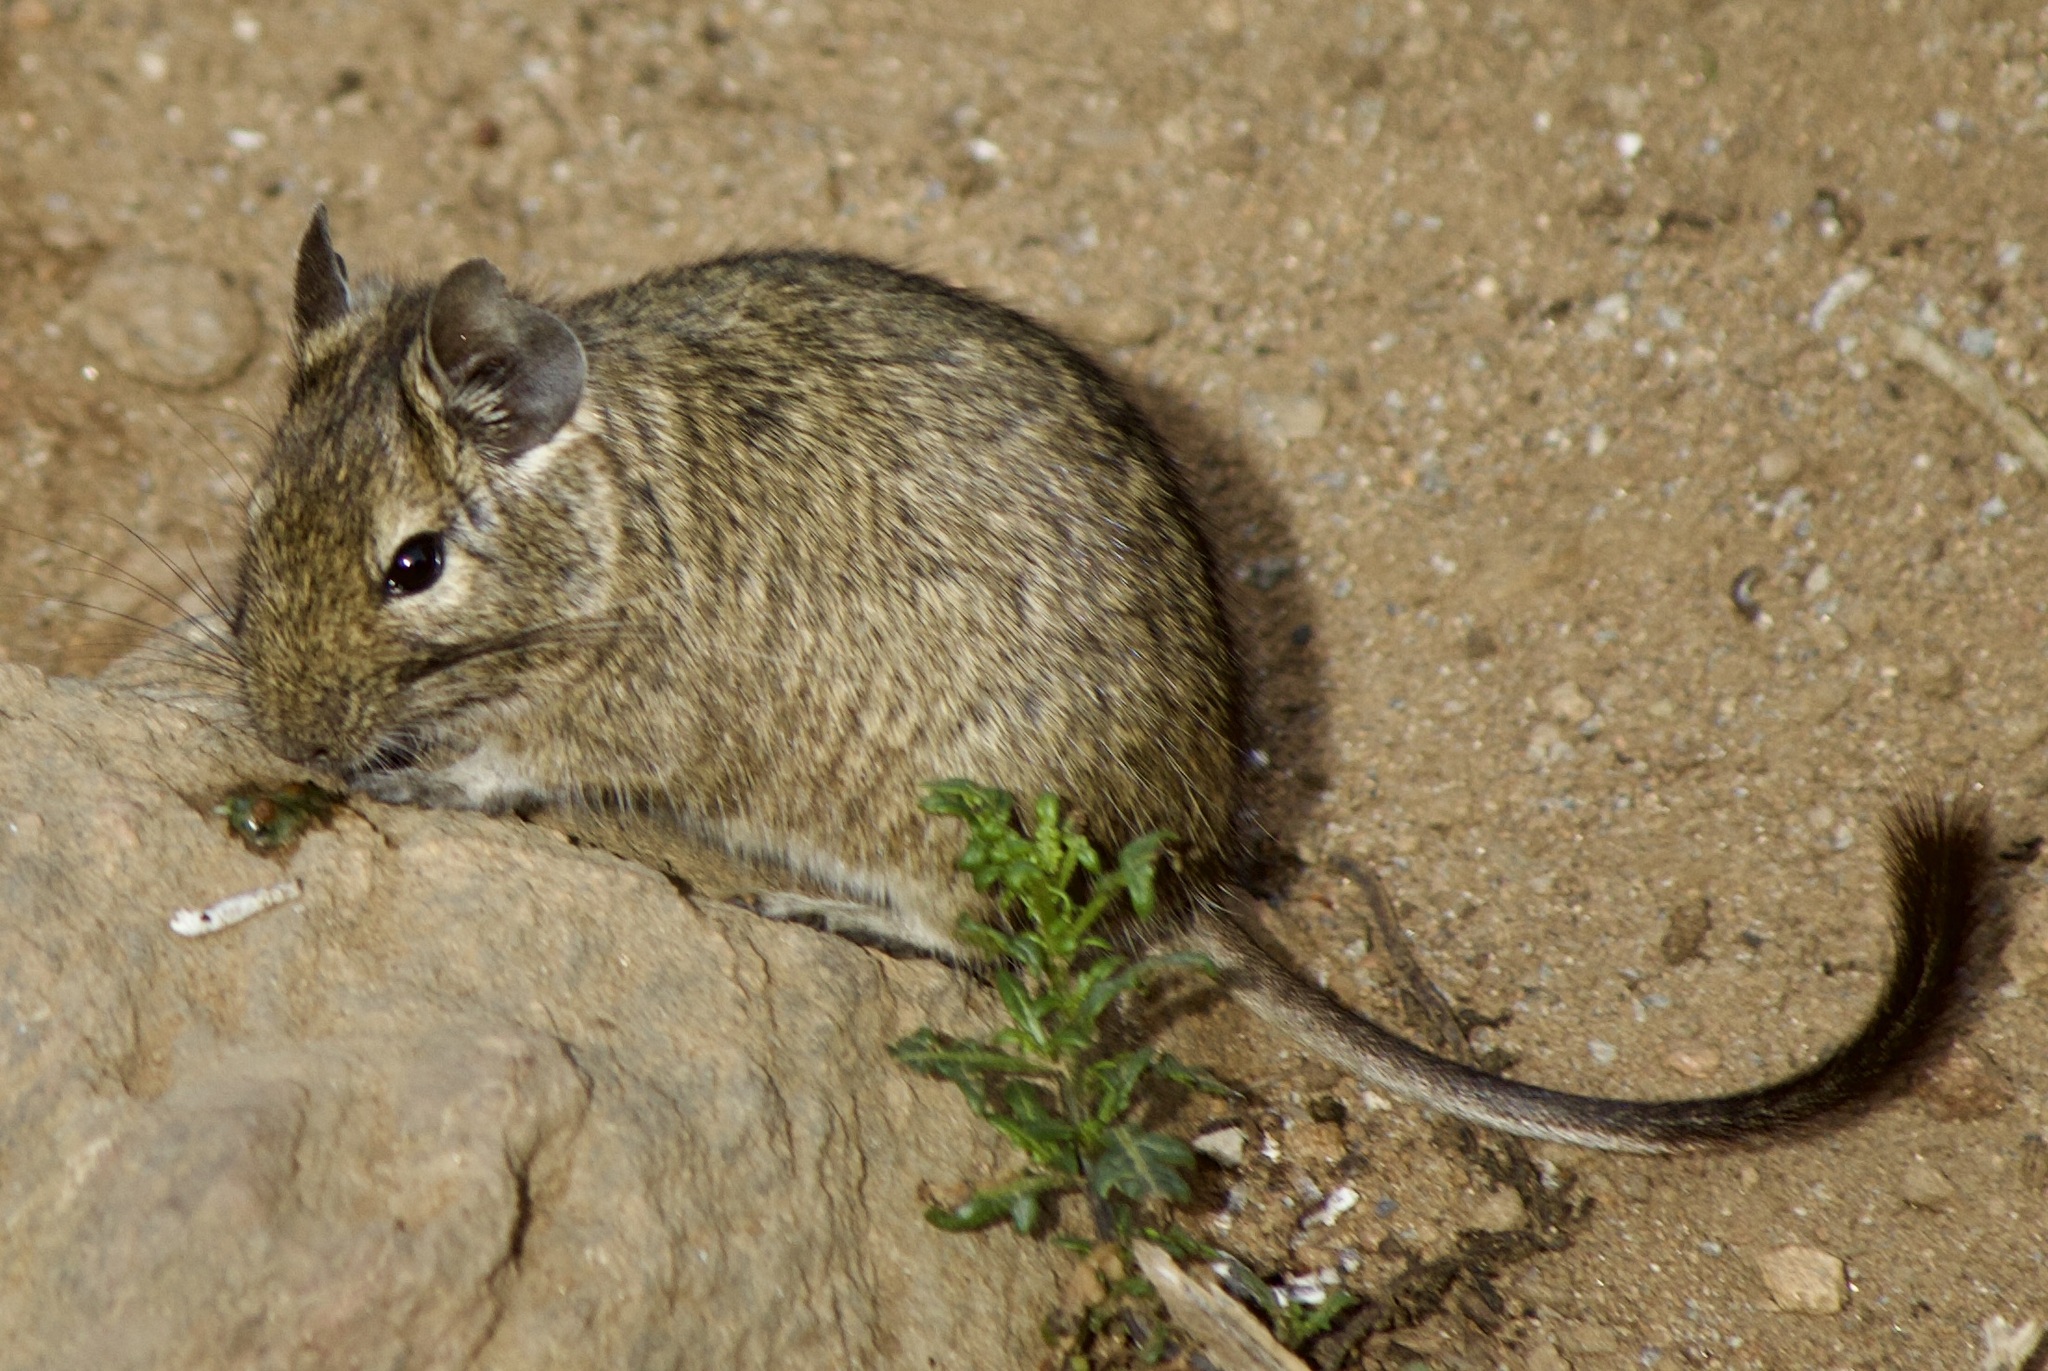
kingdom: Animalia
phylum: Chordata
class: Mammalia
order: Rodentia
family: Octodontidae
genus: Octodon
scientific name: Octodon degus
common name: Degu
